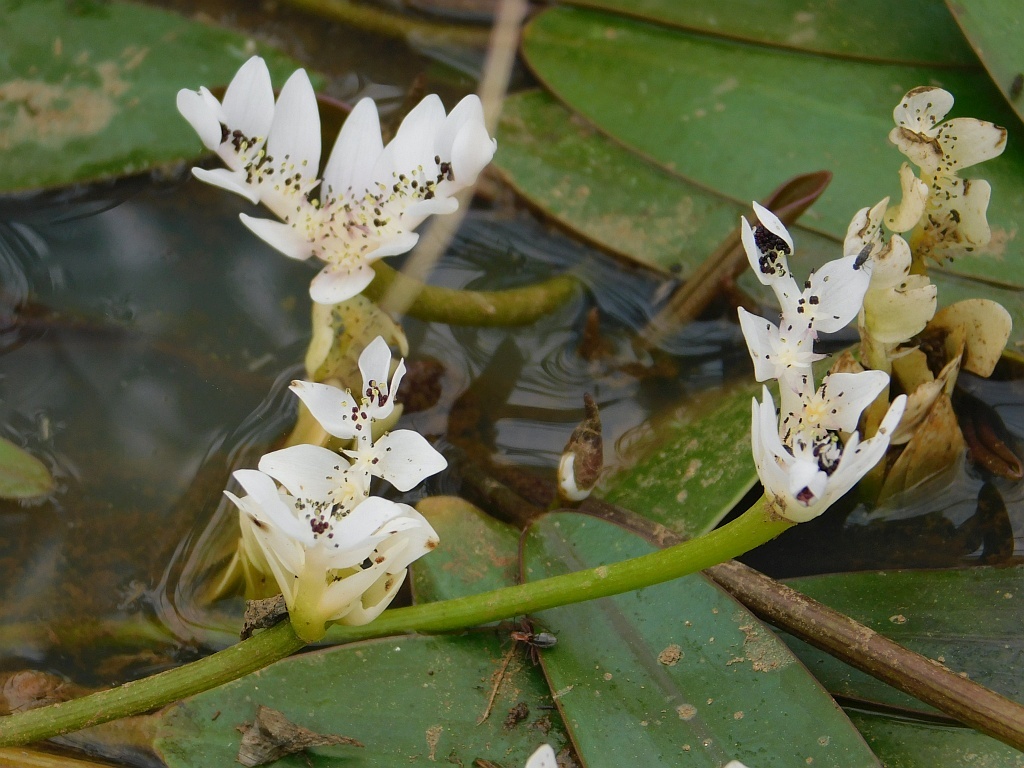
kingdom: Plantae
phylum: Tracheophyta
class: Liliopsida
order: Alismatales
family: Aponogetonaceae
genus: Aponogeton
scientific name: Aponogeton distachyos
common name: Cape-pondweed
